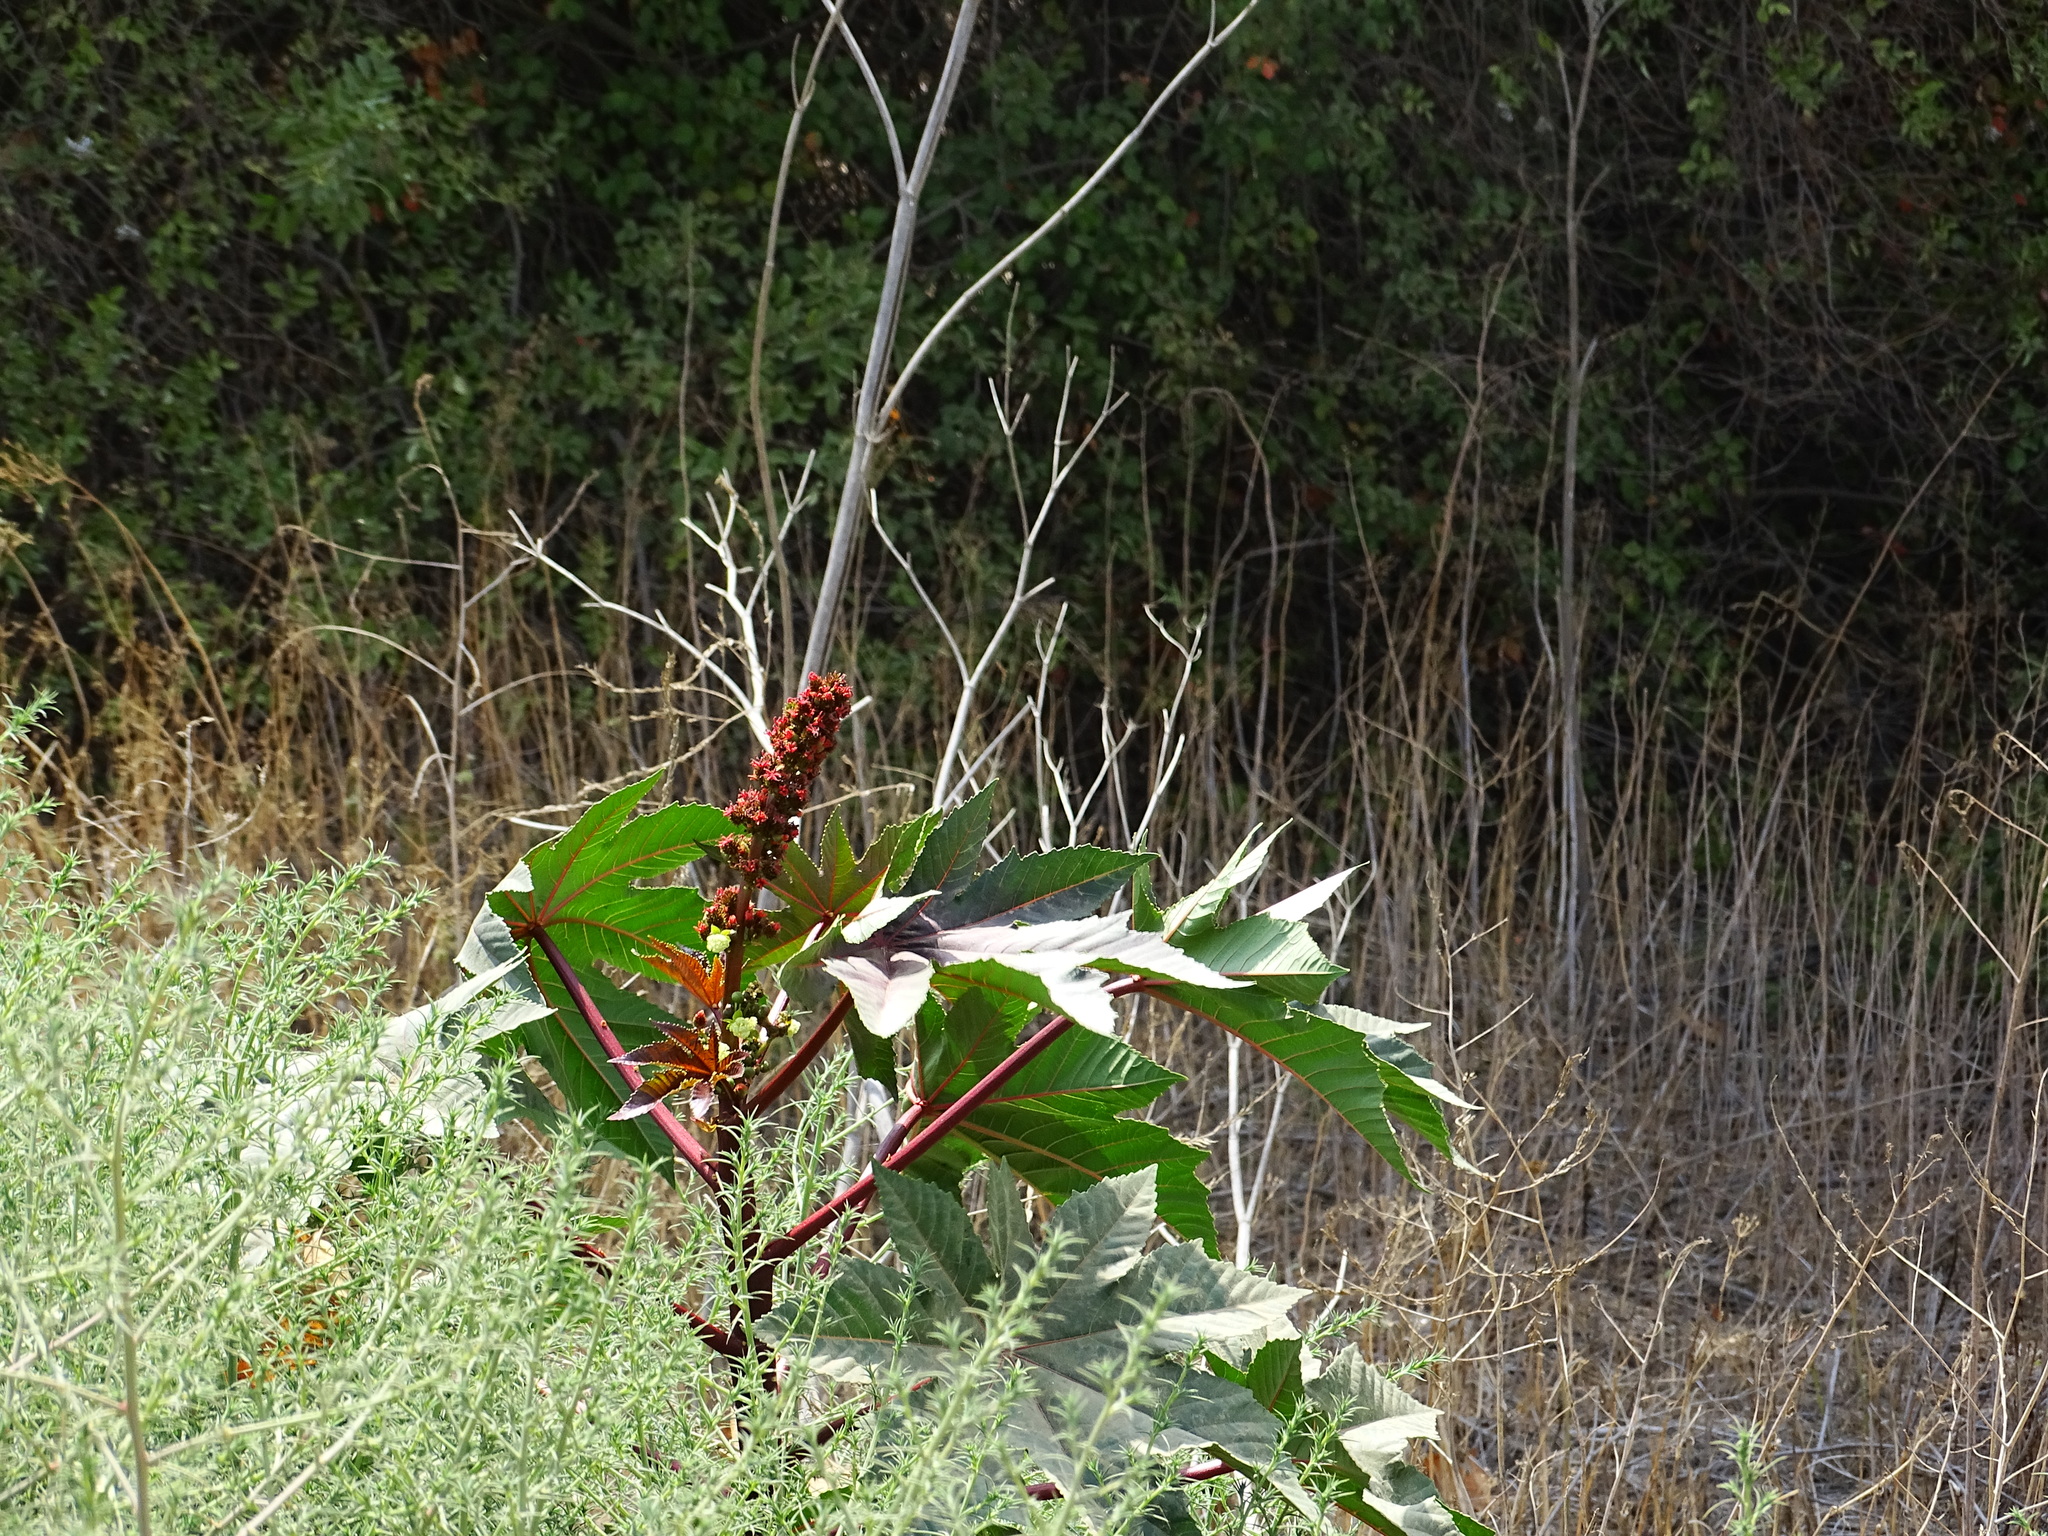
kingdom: Plantae
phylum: Tracheophyta
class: Magnoliopsida
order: Malpighiales
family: Euphorbiaceae
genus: Ricinus
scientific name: Ricinus communis
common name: Castor-oil-plant
